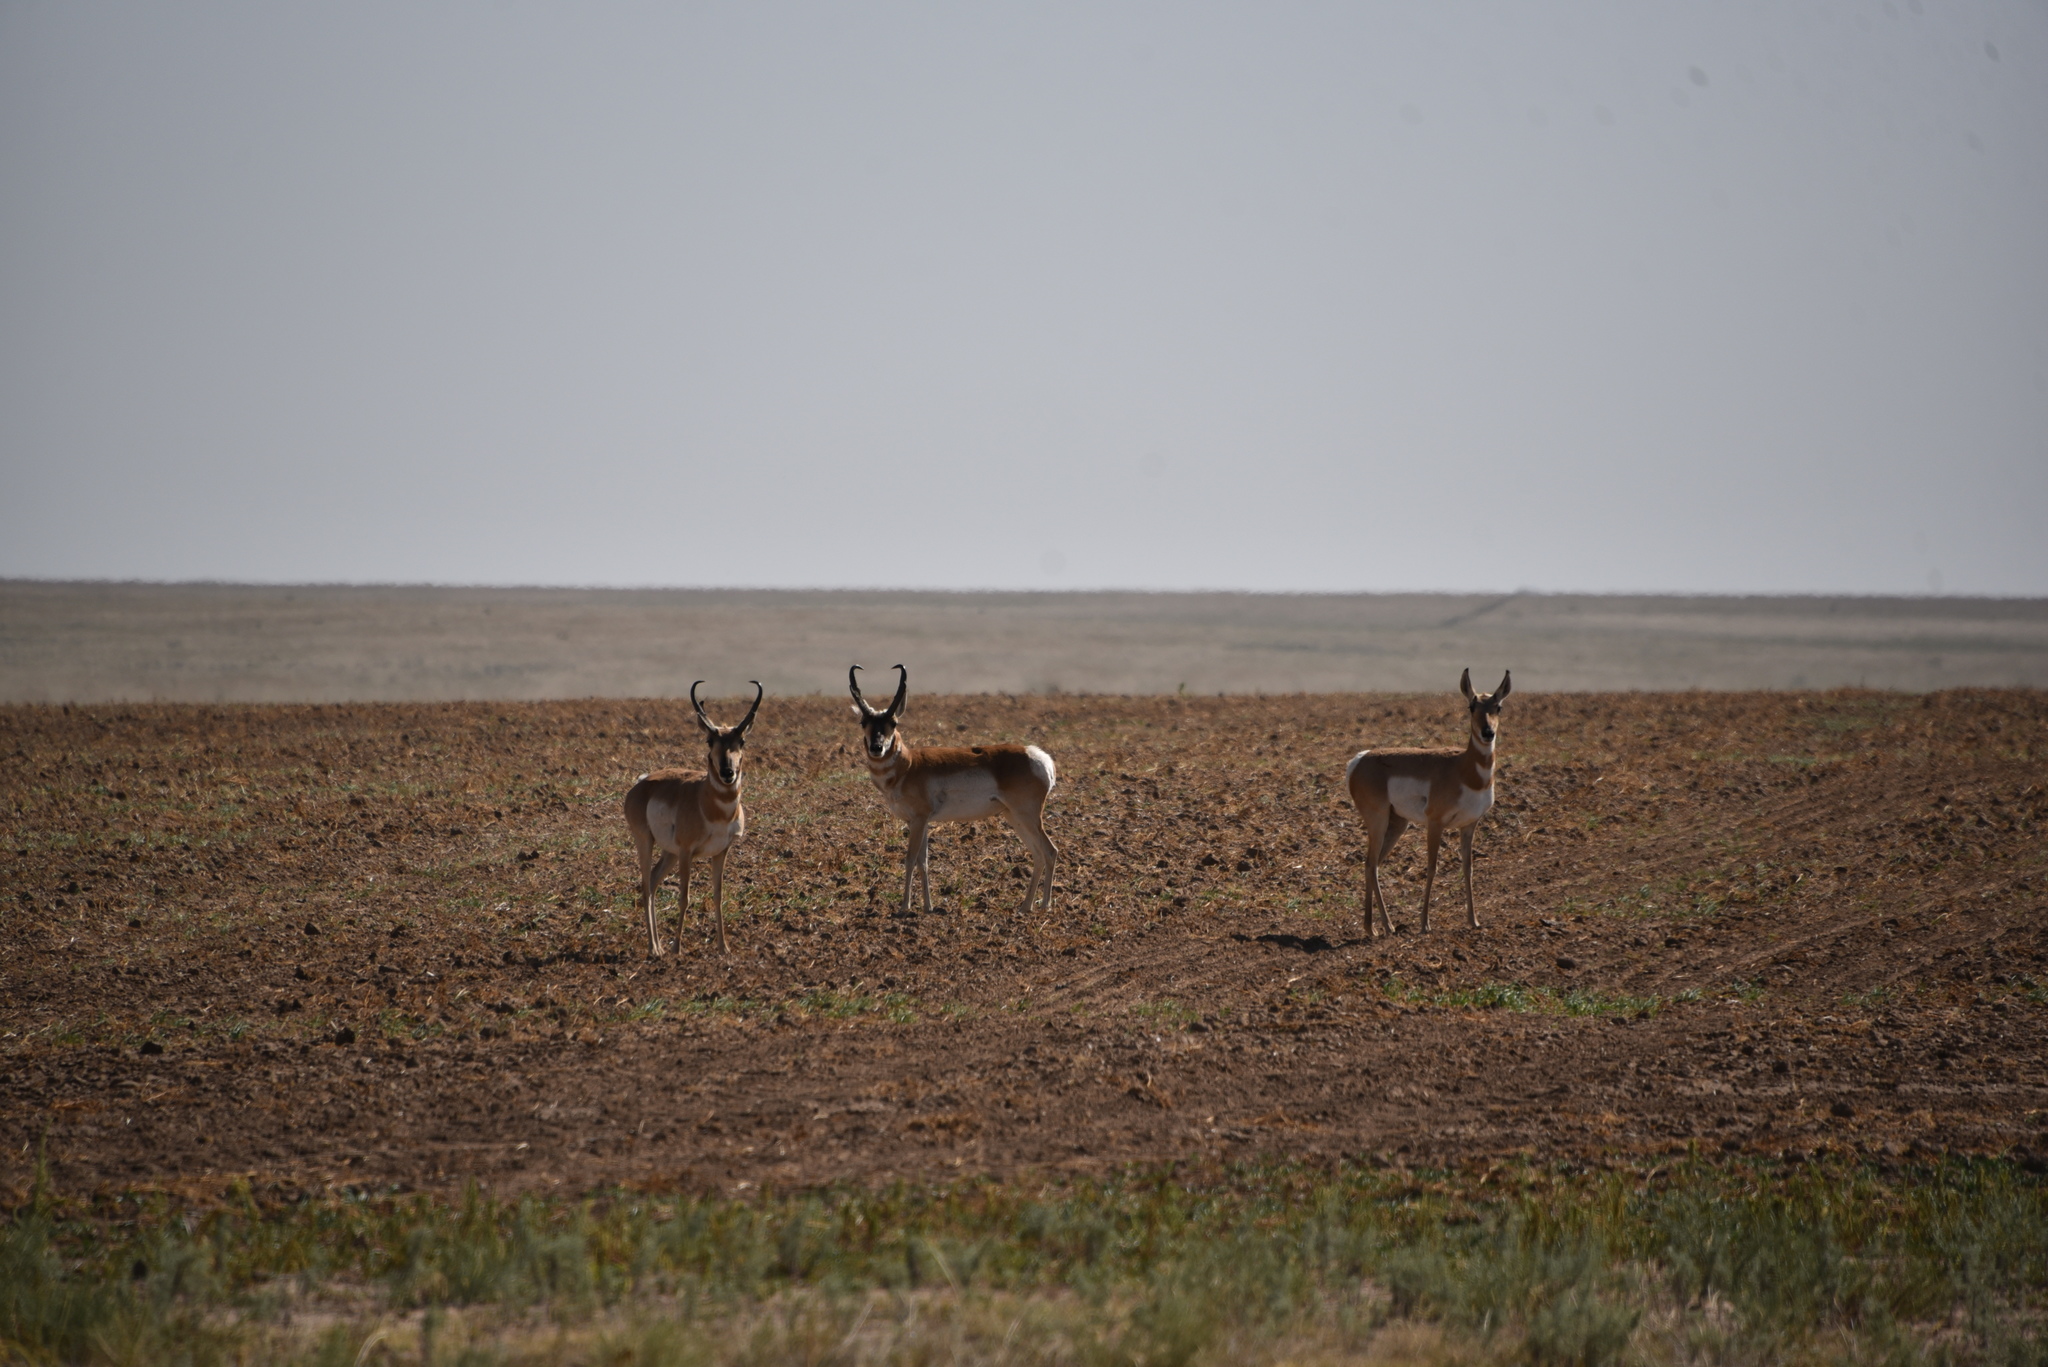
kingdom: Animalia
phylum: Chordata
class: Mammalia
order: Artiodactyla
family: Antilocapridae
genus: Antilocapra
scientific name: Antilocapra americana
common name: Pronghorn
